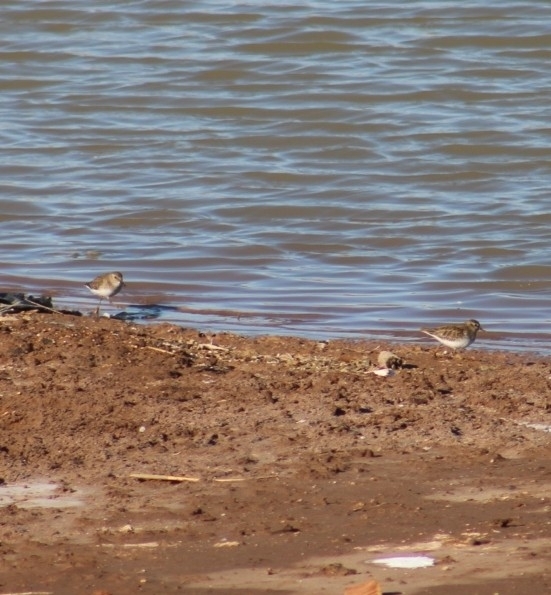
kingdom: Animalia
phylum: Chordata
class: Aves
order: Charadriiformes
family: Scolopacidae
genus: Calidris
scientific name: Calidris minutilla
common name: Least sandpiper
